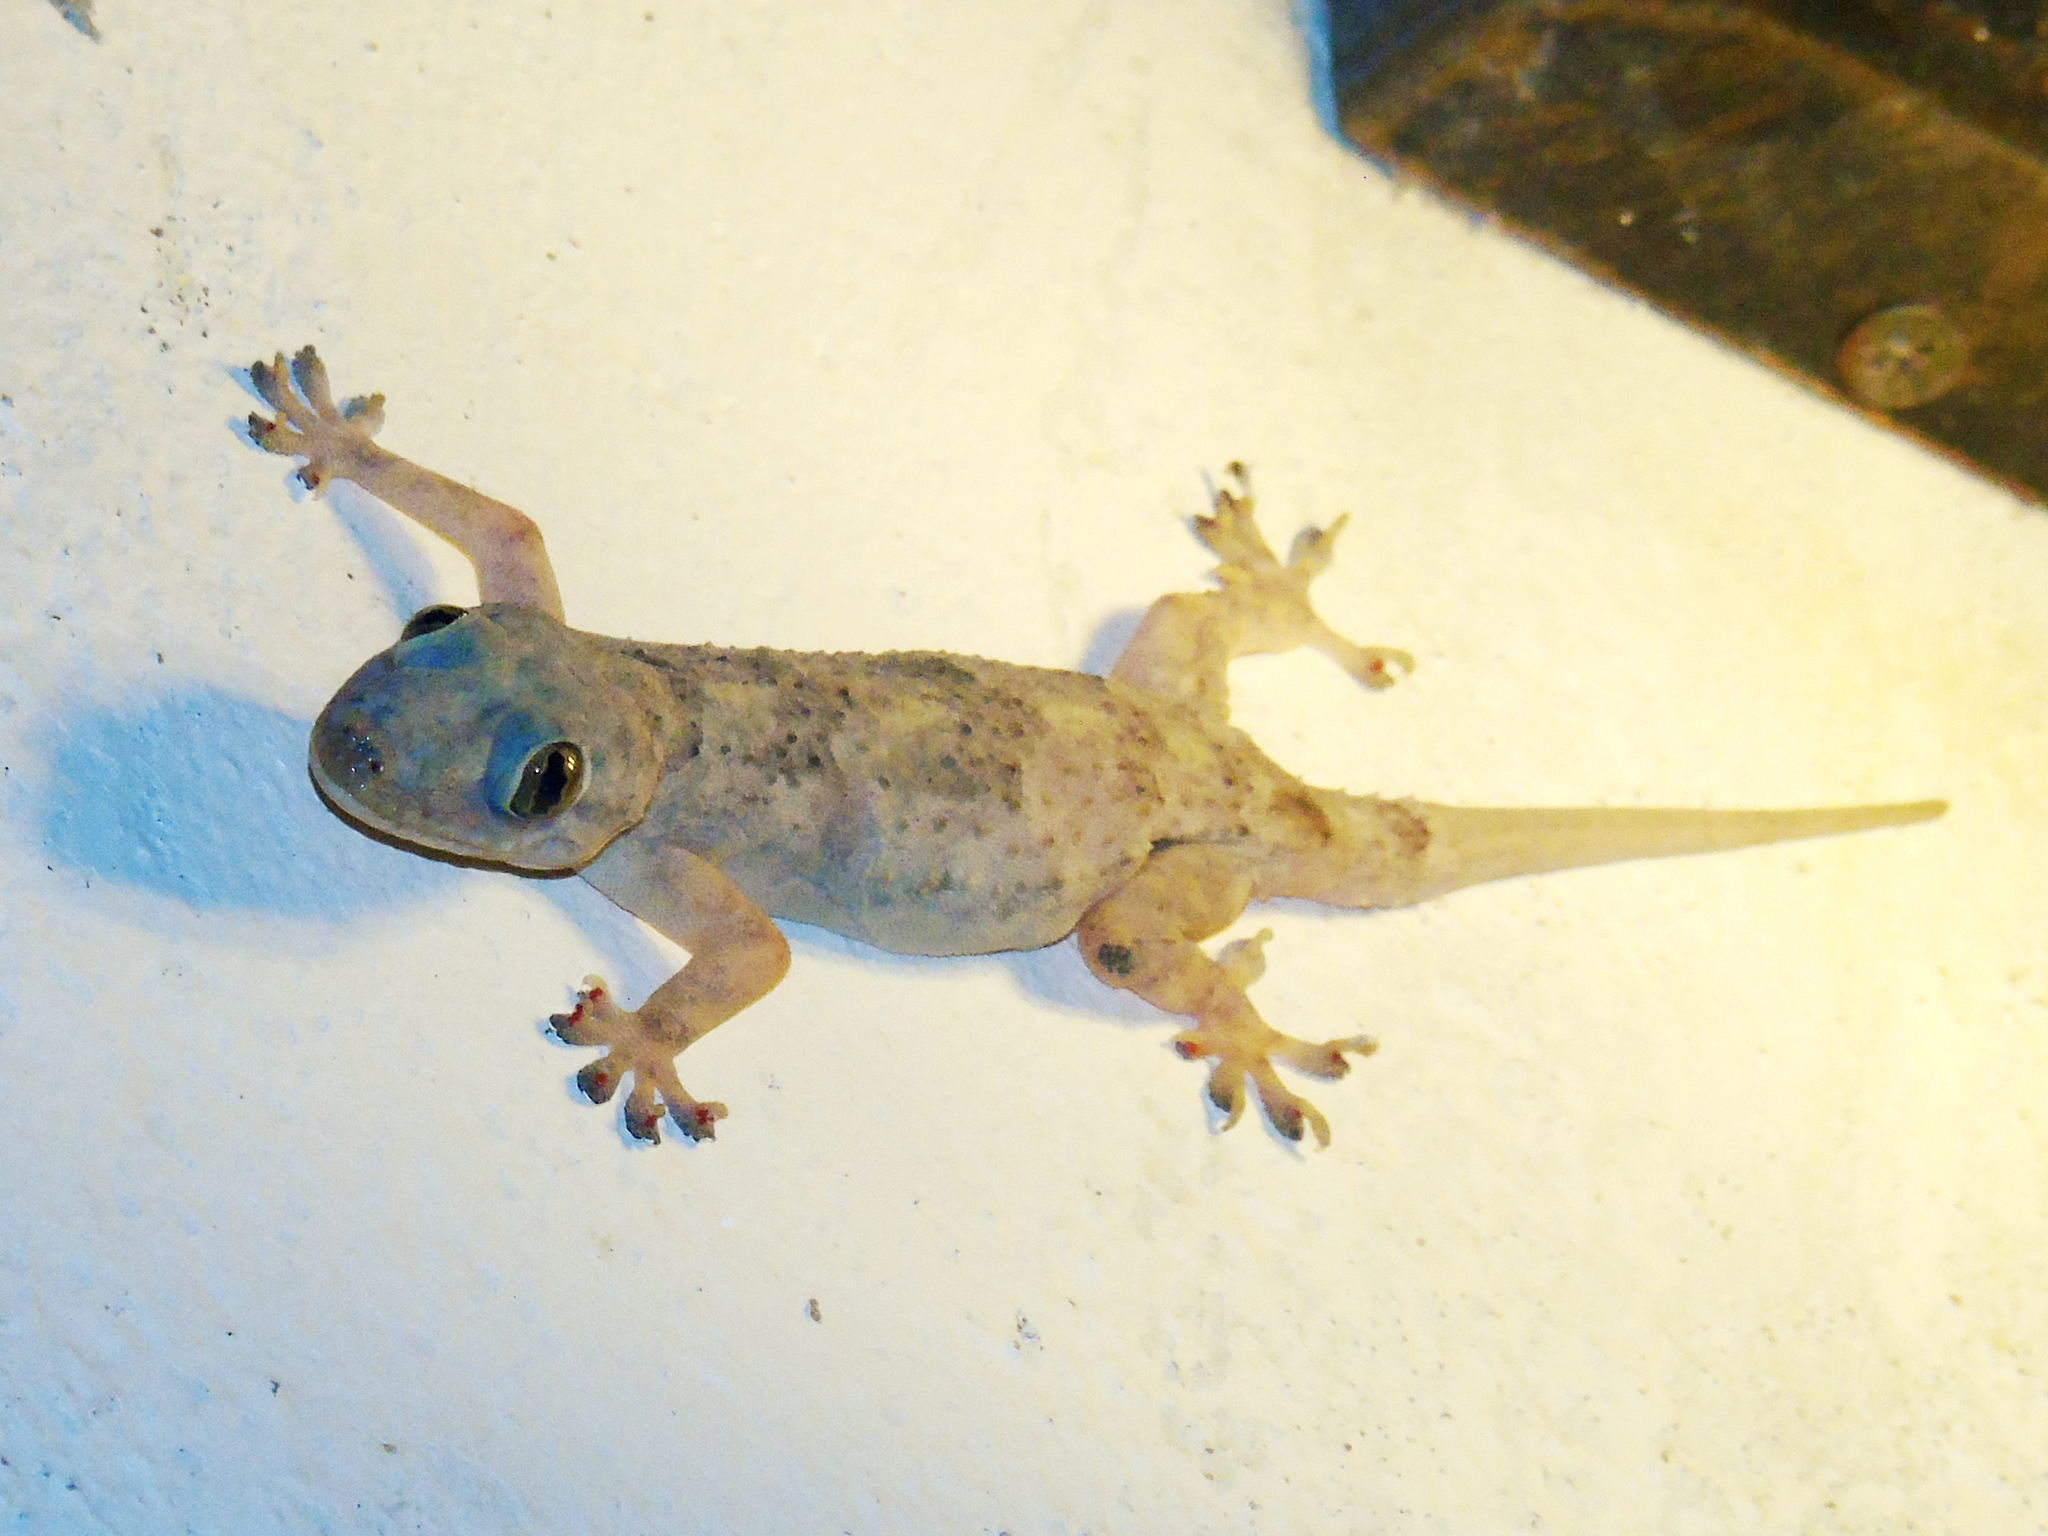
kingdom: Animalia
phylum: Chordata
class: Squamata
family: Gekkonidae
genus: Hemidactylus
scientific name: Hemidactylus mabouia
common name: House gecko
